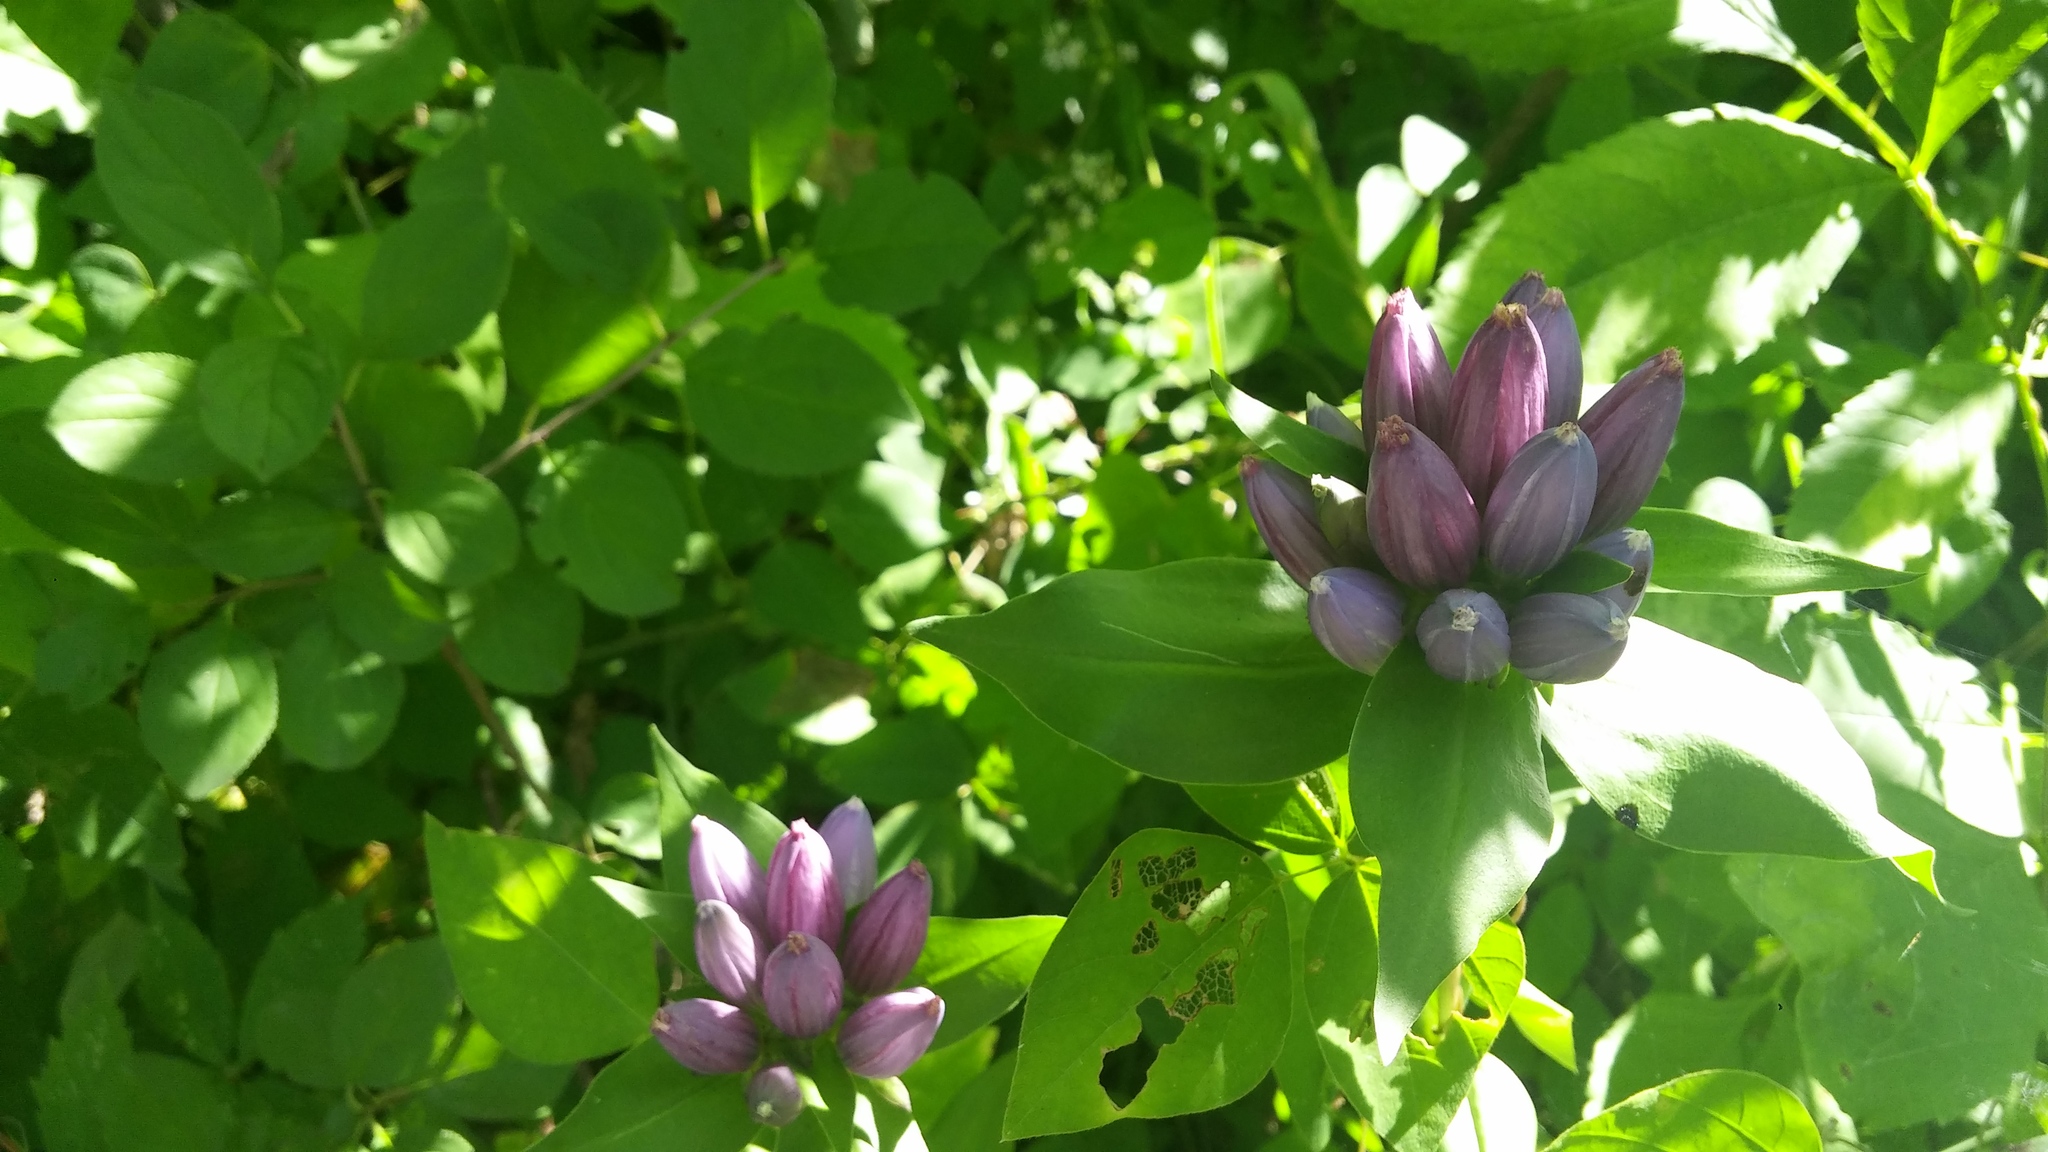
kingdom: Plantae
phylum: Tracheophyta
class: Magnoliopsida
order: Gentianales
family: Gentianaceae
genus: Gentiana
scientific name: Gentiana andrewsii
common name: Bottle gentian
